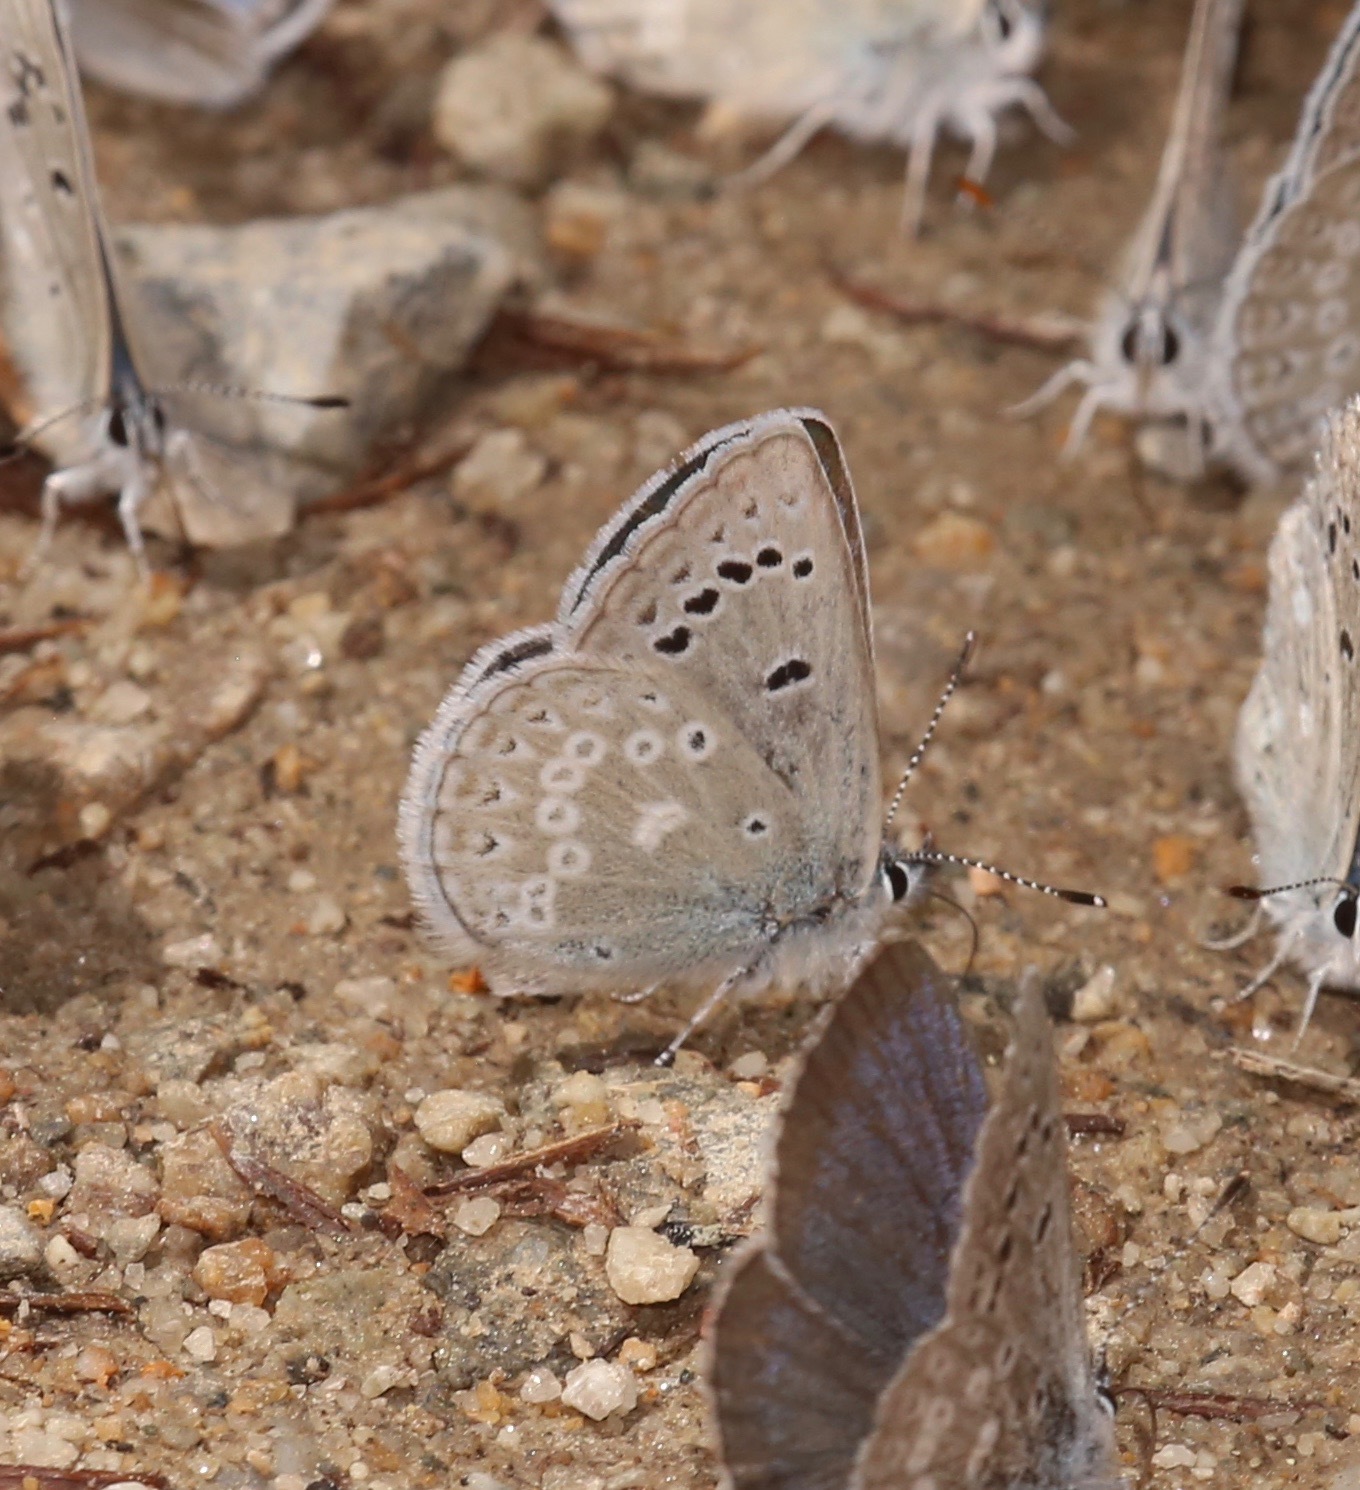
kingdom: Animalia
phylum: Arthropoda
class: Insecta
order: Lepidoptera
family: Lycaenidae
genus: Icaricia
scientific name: Icaricia icarioides
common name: Boisduval's blue
